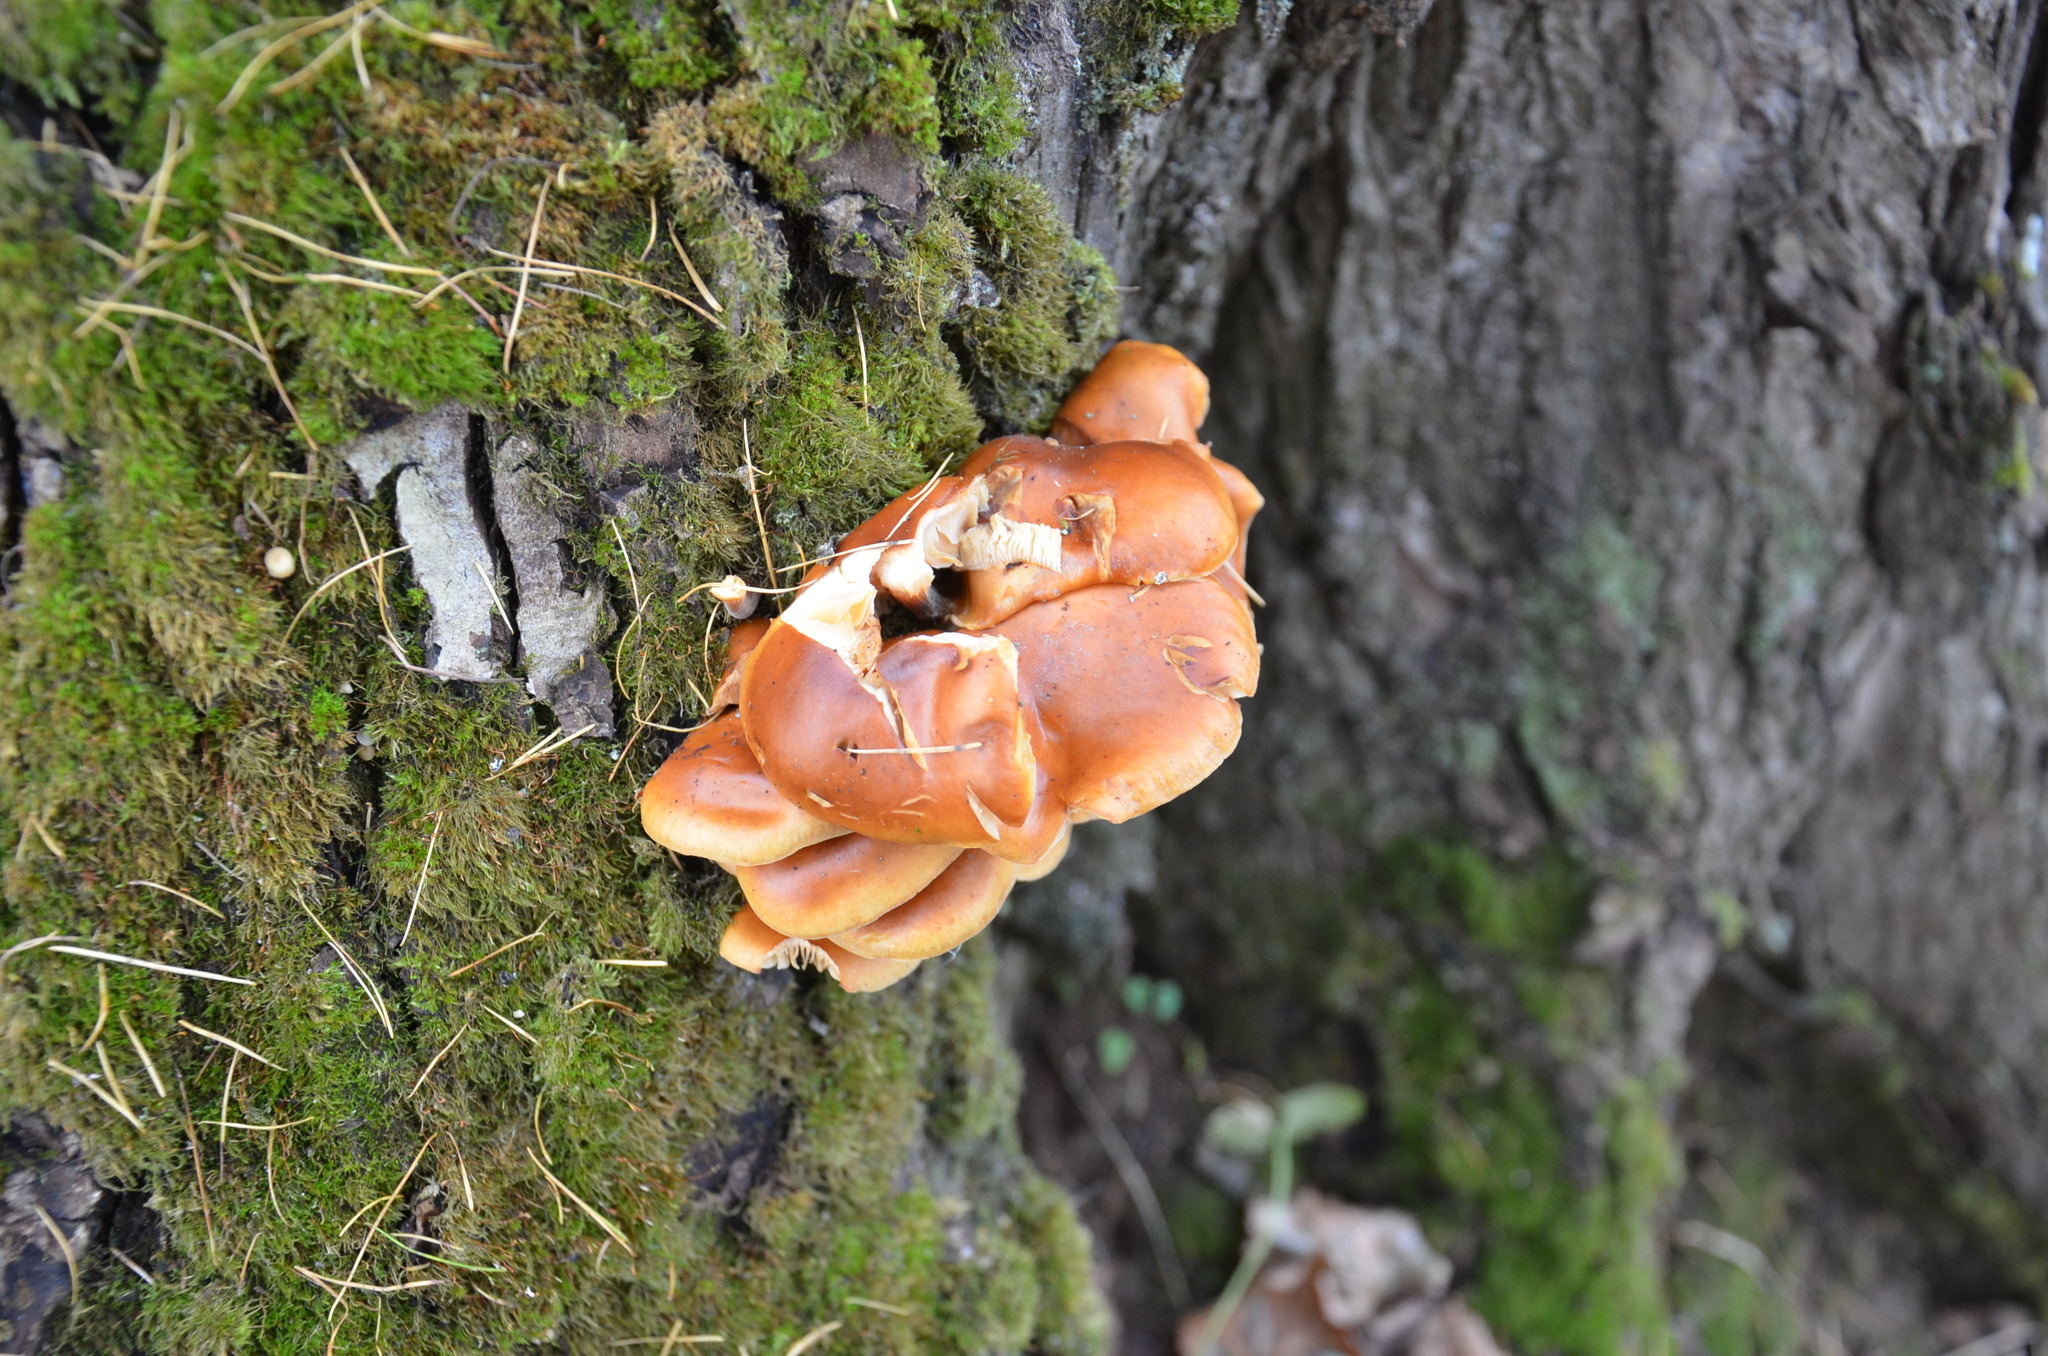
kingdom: Fungi
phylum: Basidiomycota
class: Agaricomycetes
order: Agaricales
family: Physalacriaceae
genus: Flammulina
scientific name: Flammulina
